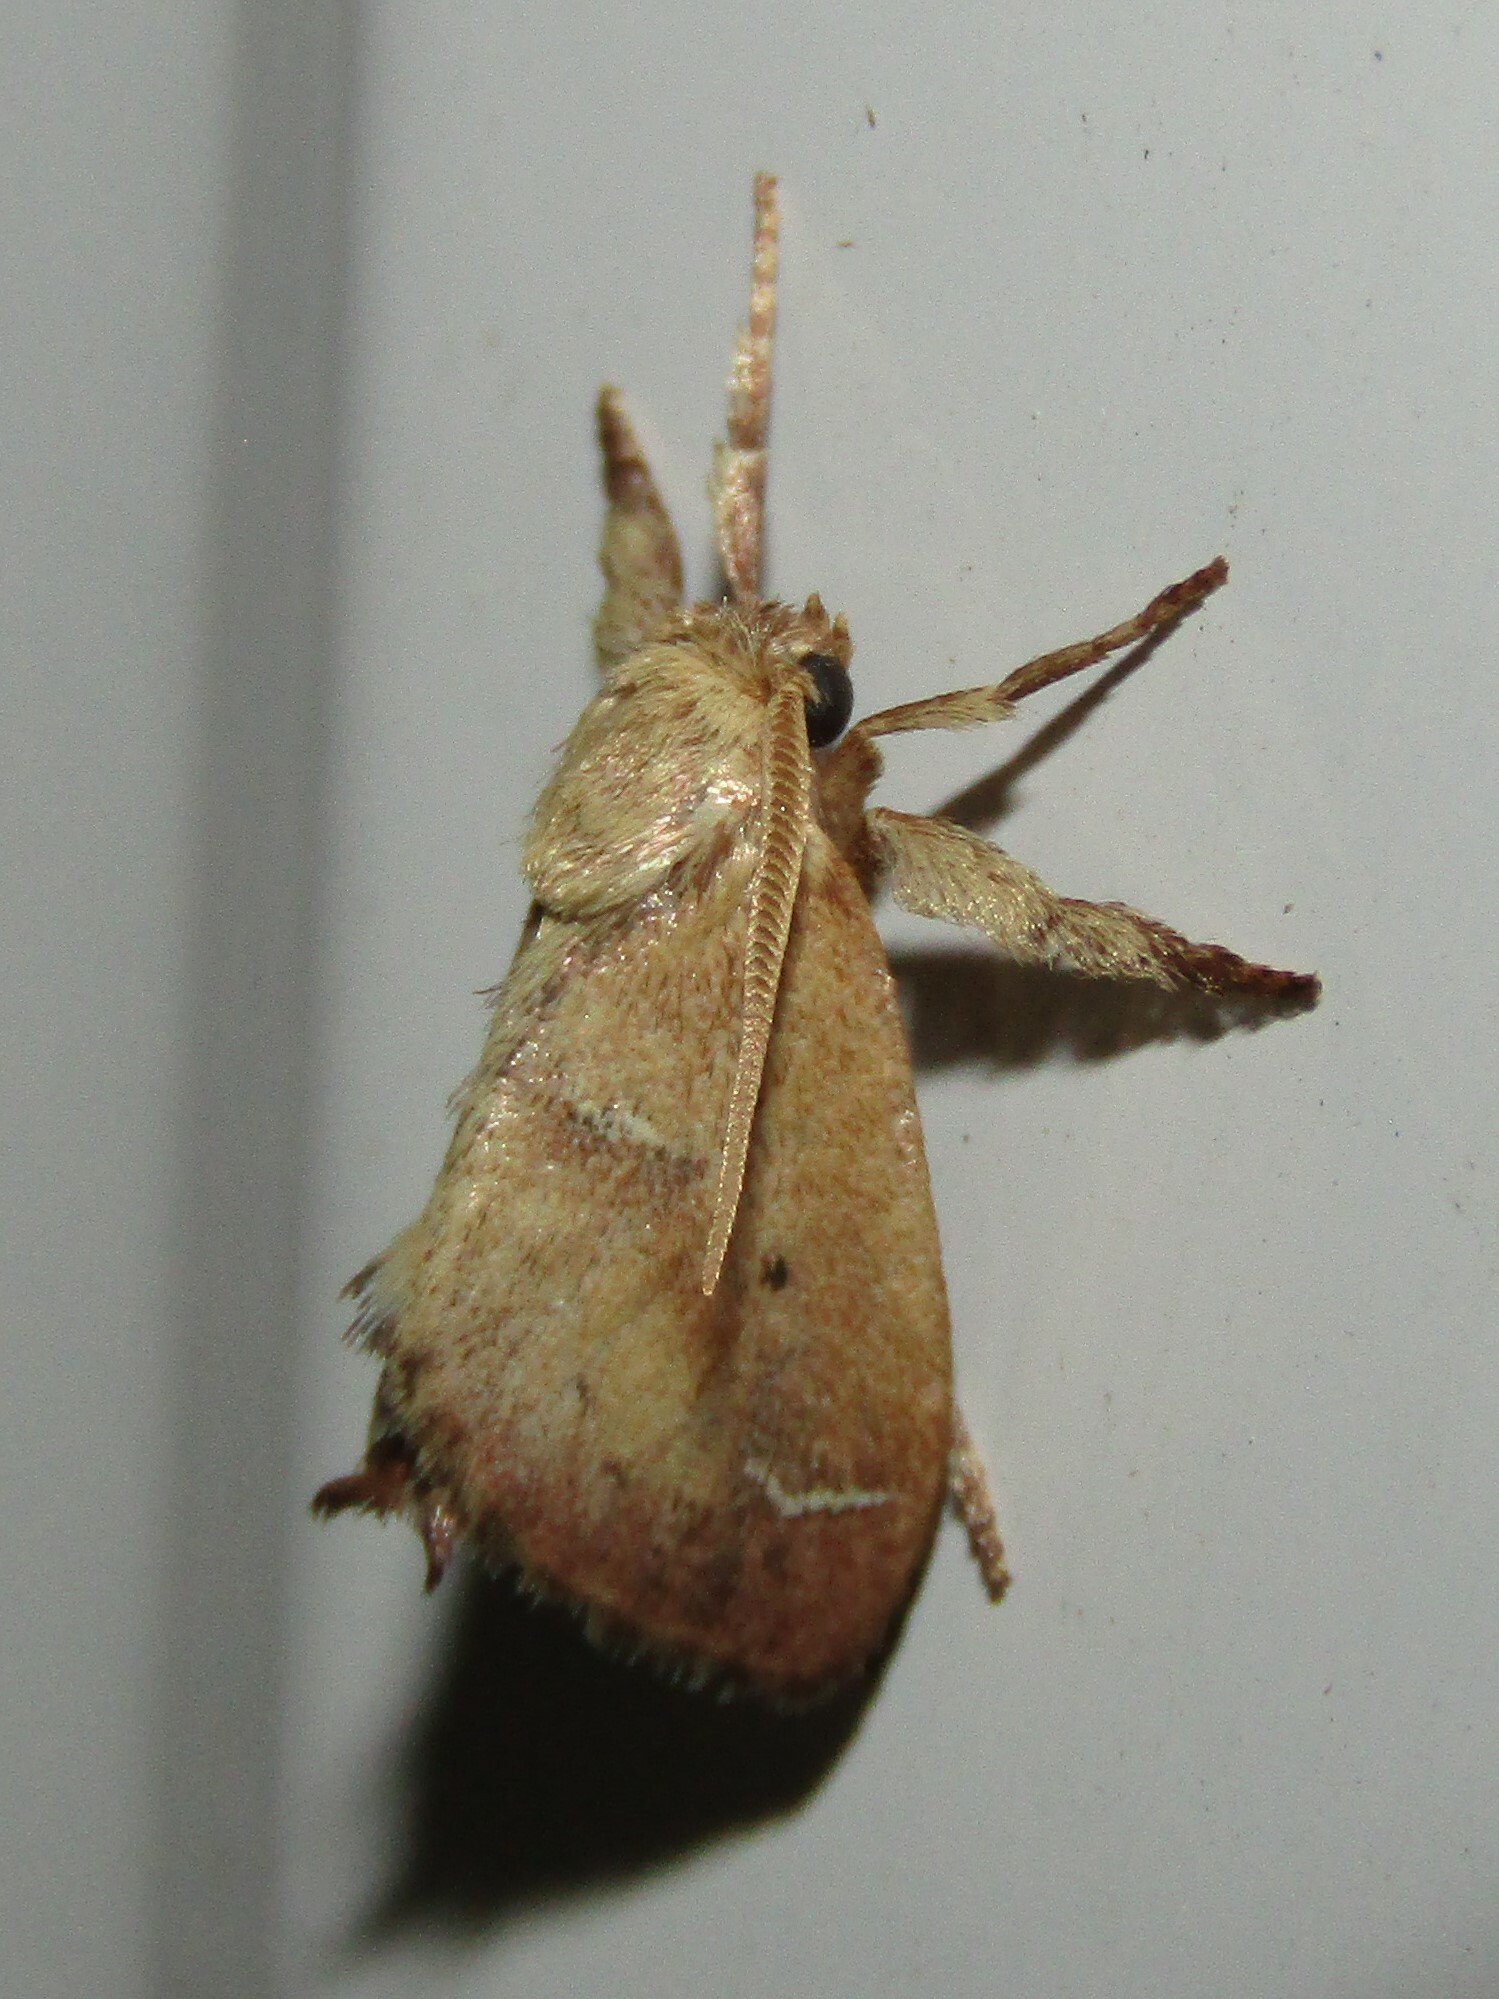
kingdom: Animalia
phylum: Arthropoda
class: Insecta
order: Lepidoptera
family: Limacodidae
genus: Adoneta
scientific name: Adoneta bicaudata
